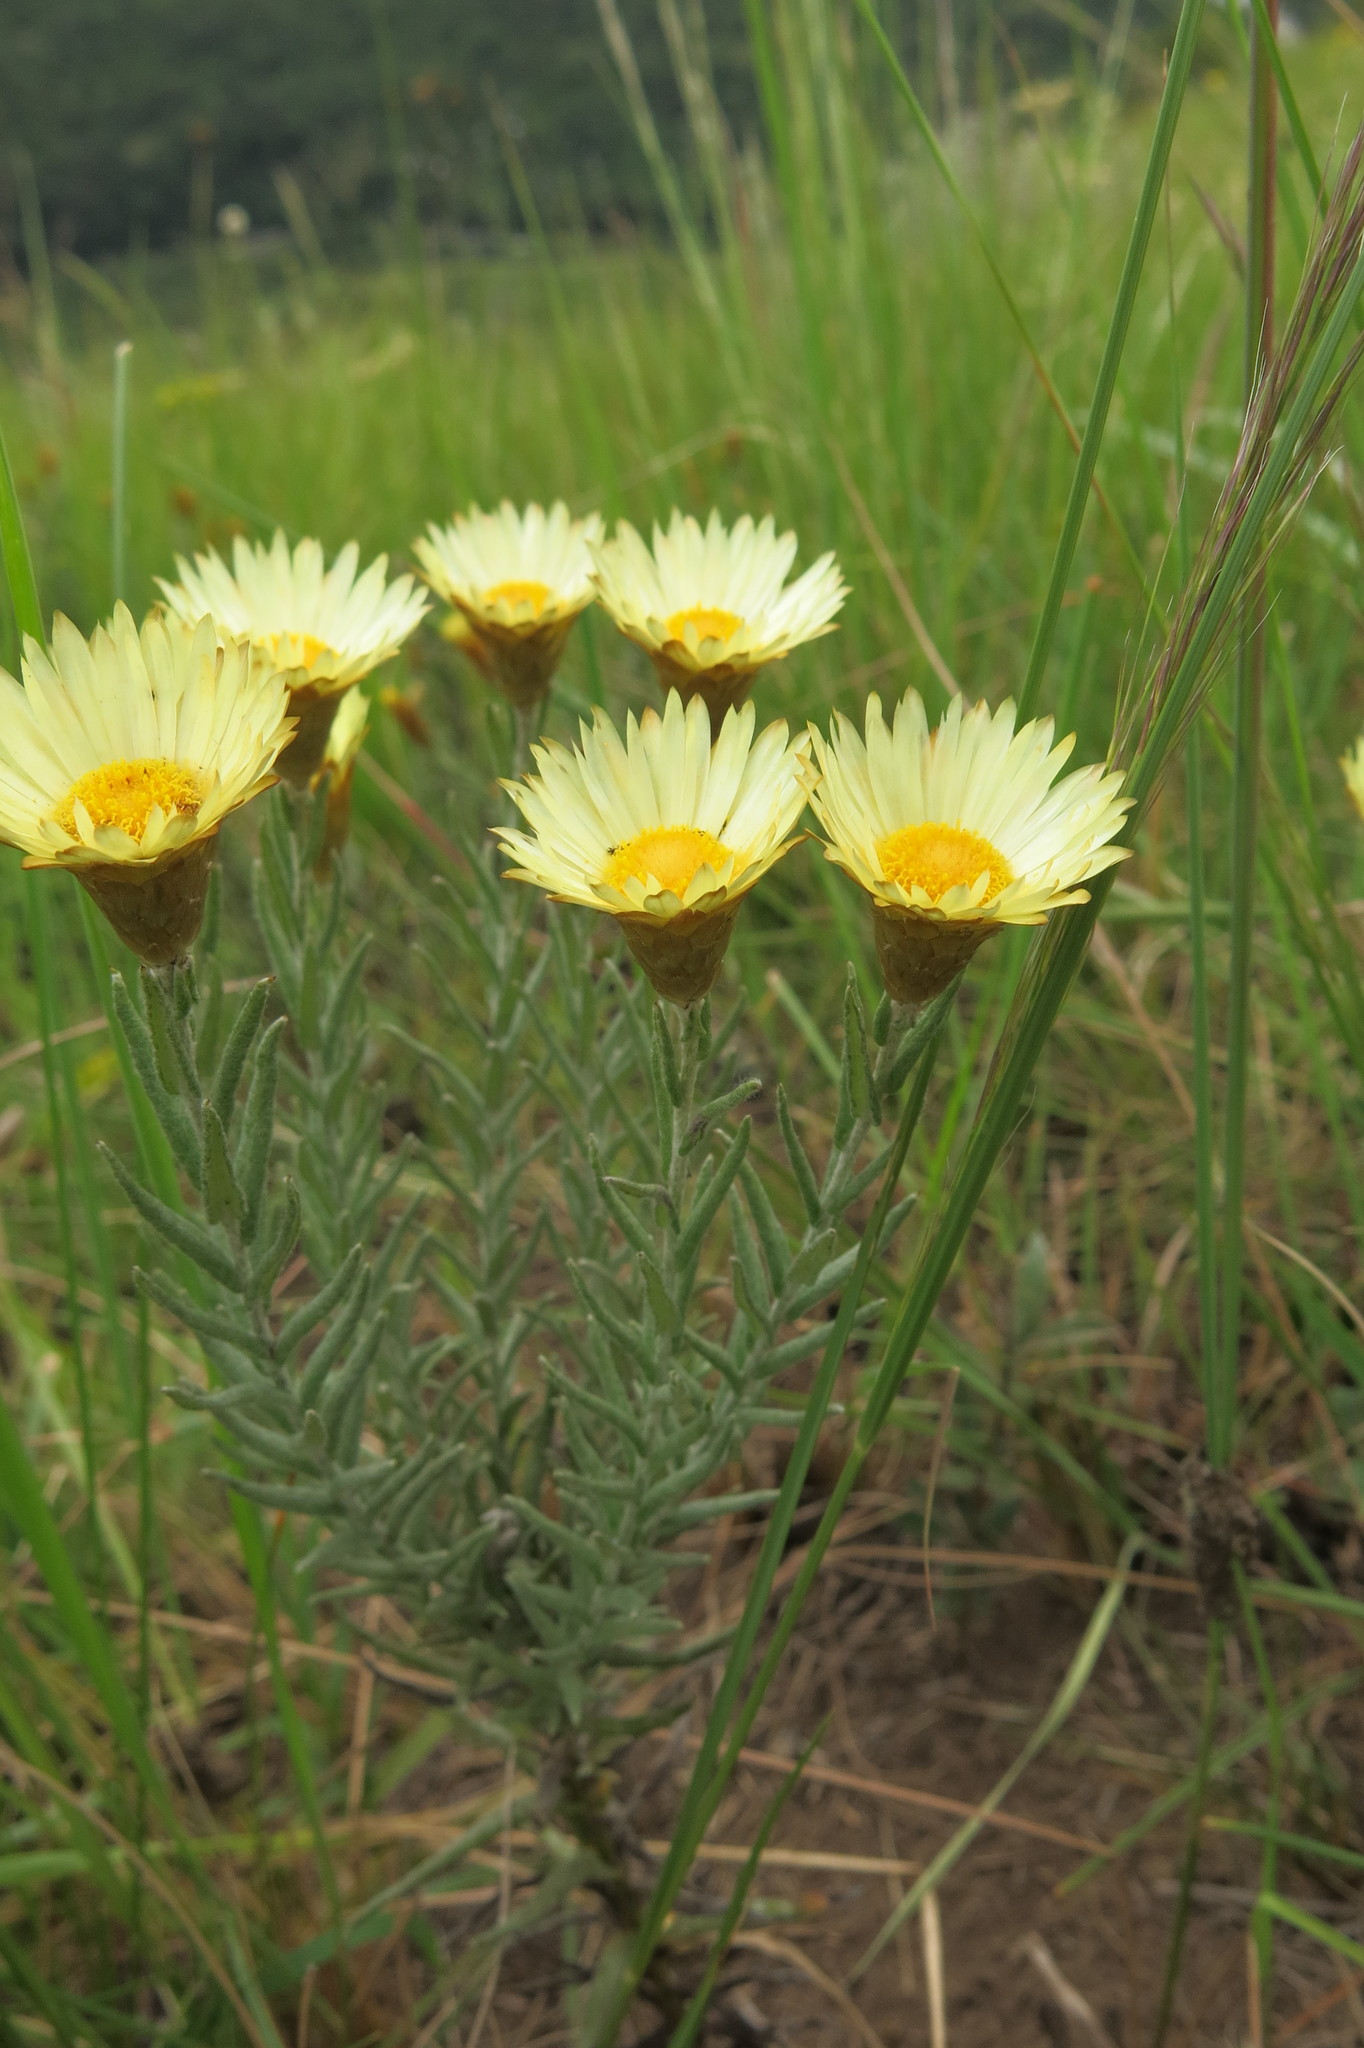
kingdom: Plantae
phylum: Tracheophyta
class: Magnoliopsida
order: Asterales
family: Asteraceae
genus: Helichrysum
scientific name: Helichrysum herbaceum
